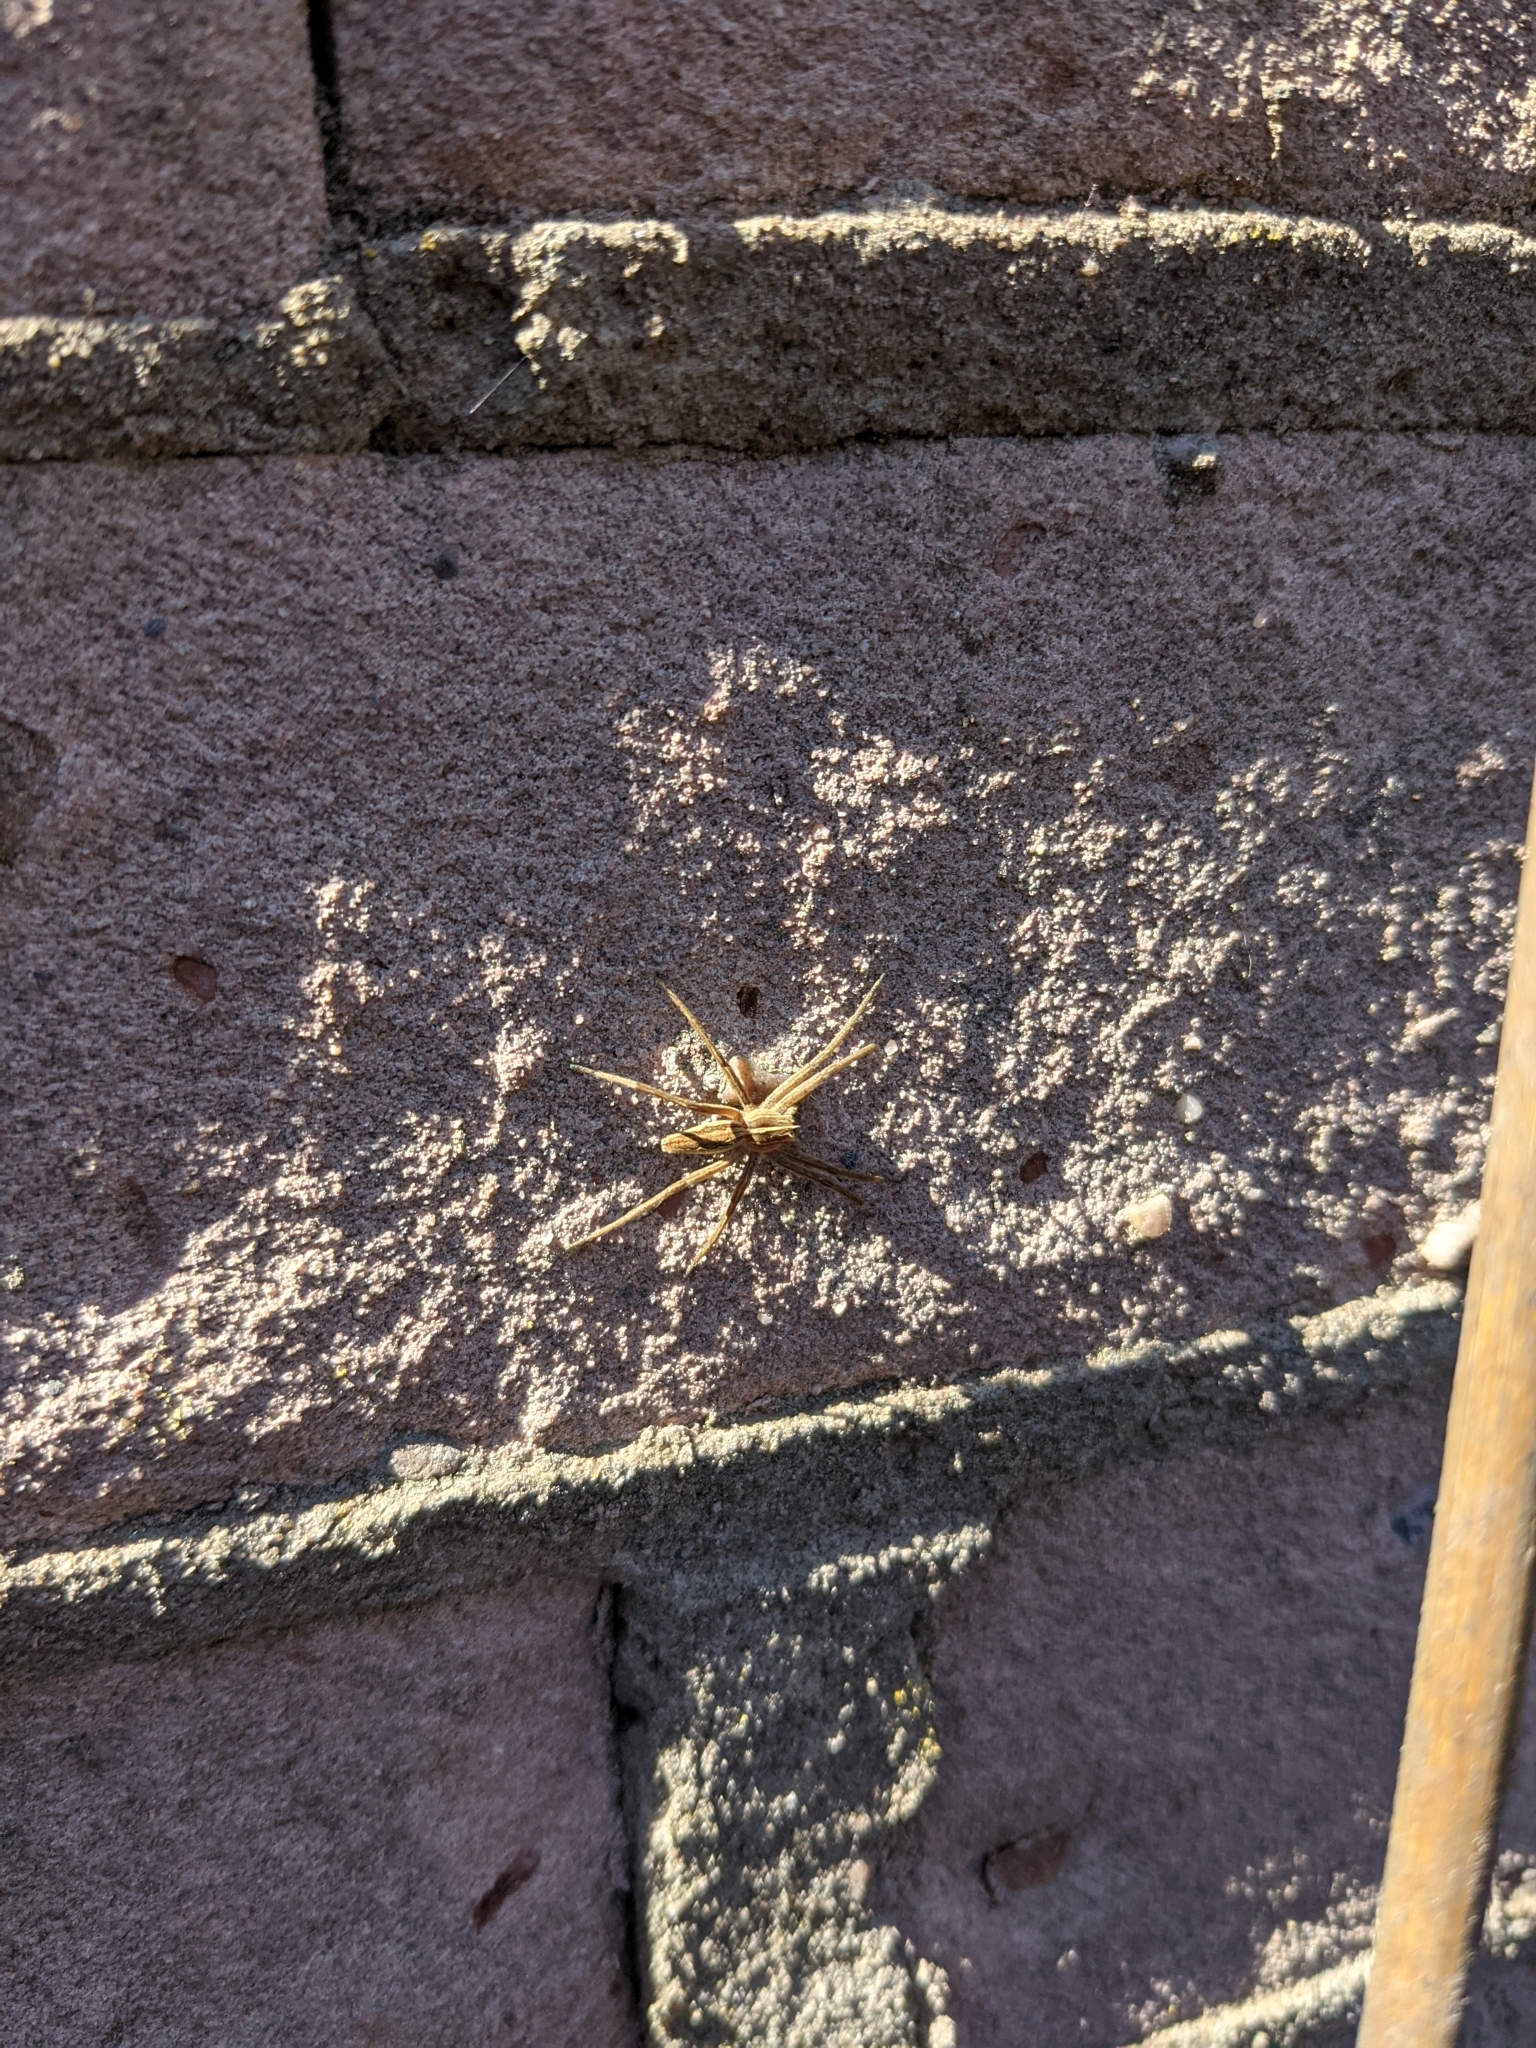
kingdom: Animalia
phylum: Arthropoda
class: Arachnida
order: Araneae
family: Pisauridae
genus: Pisaura
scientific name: Pisaura mirabilis
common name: Tent spider
